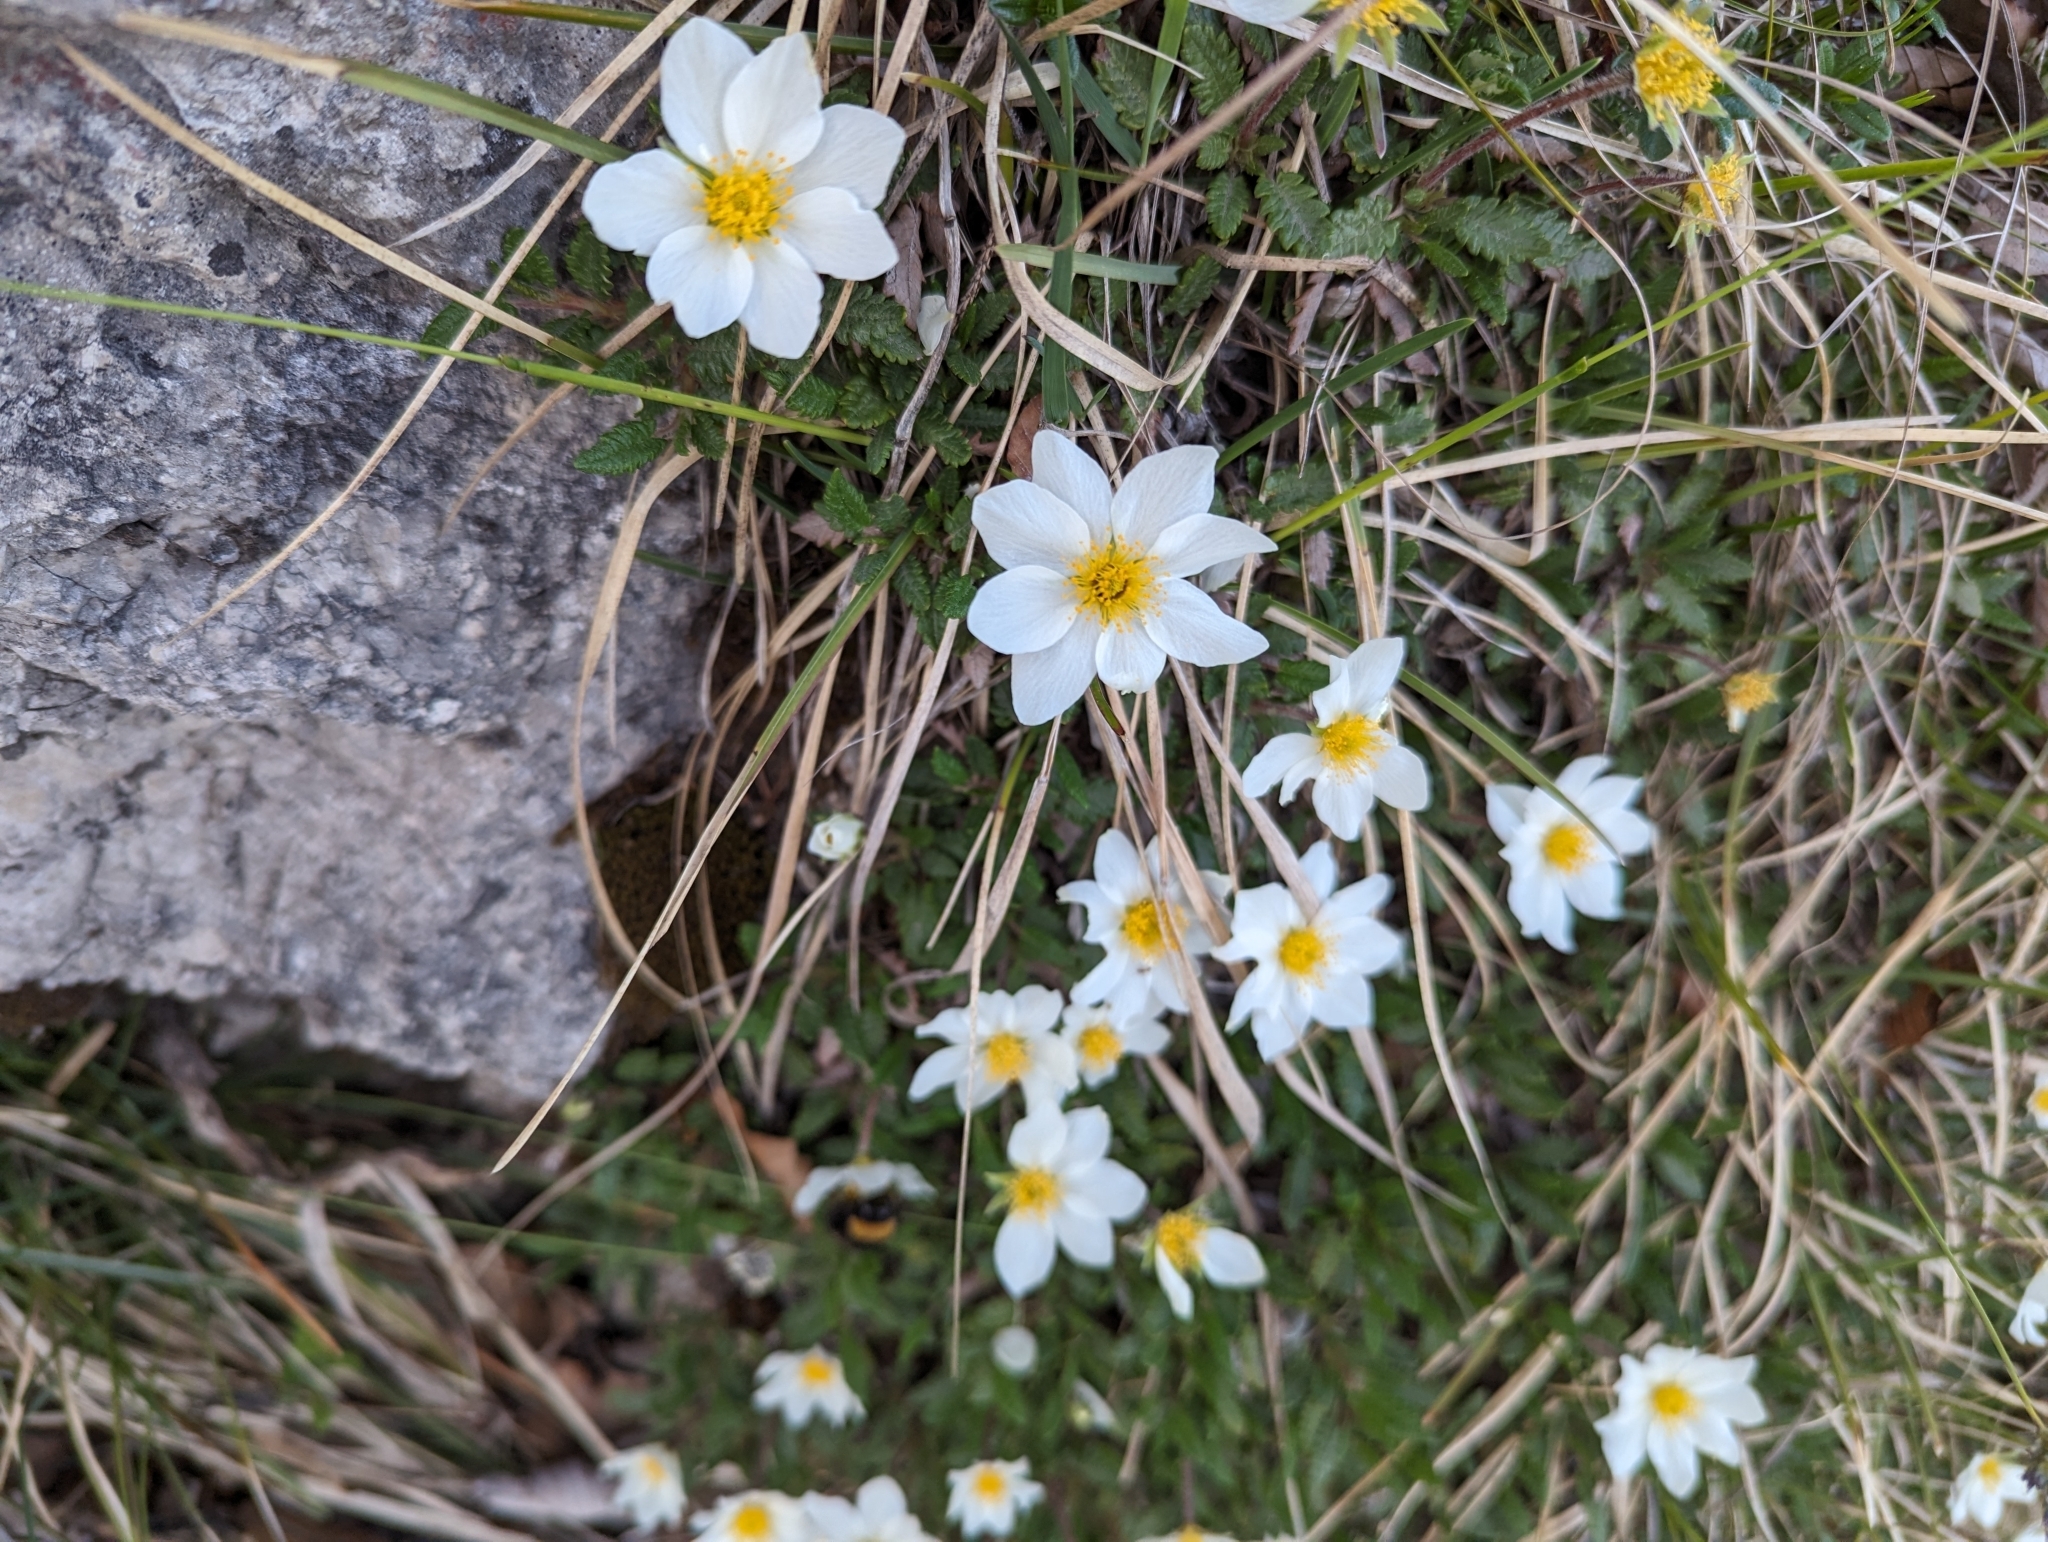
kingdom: Plantae
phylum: Tracheophyta
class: Magnoliopsida
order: Rosales
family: Rosaceae
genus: Dryas
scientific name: Dryas octopetala
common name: Eight-petal mountain-avens
